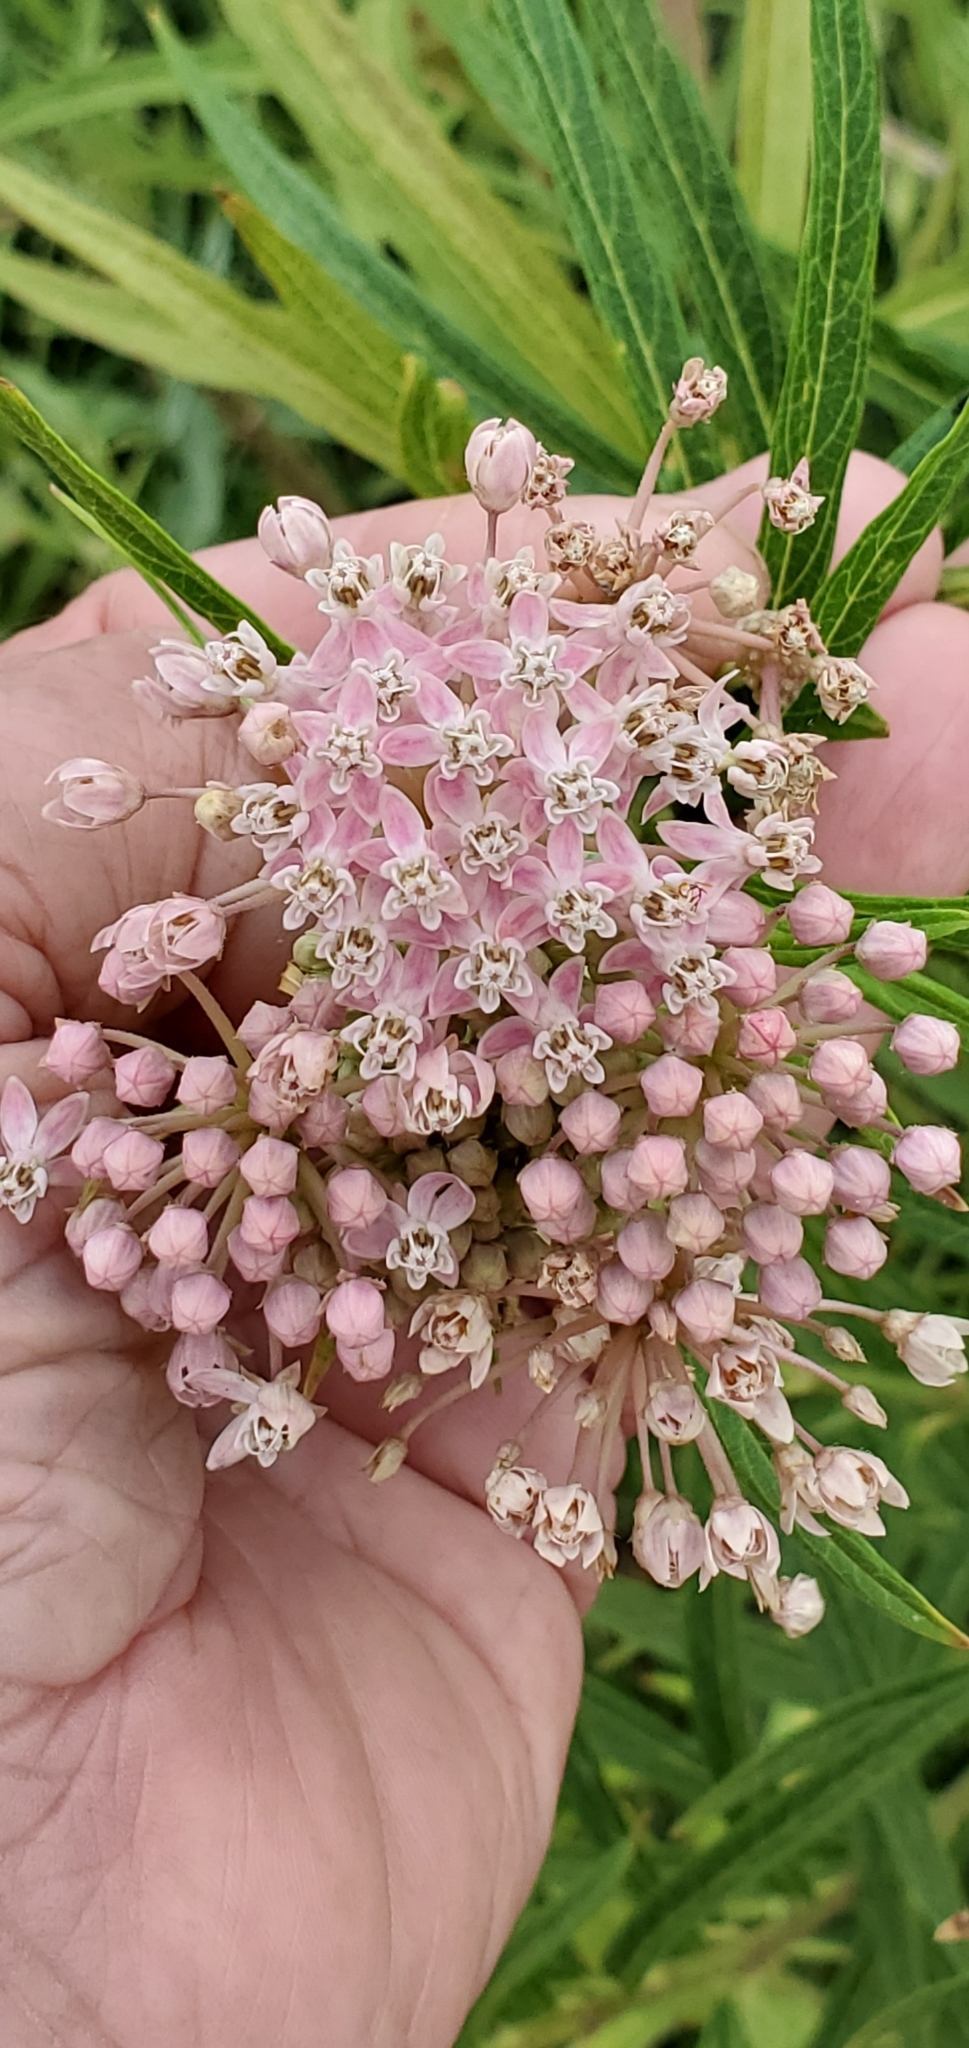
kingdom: Plantae
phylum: Tracheophyta
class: Magnoliopsida
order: Gentianales
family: Apocynaceae
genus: Asclepias
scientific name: Asclepias incarnata
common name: Swamp milkweed
